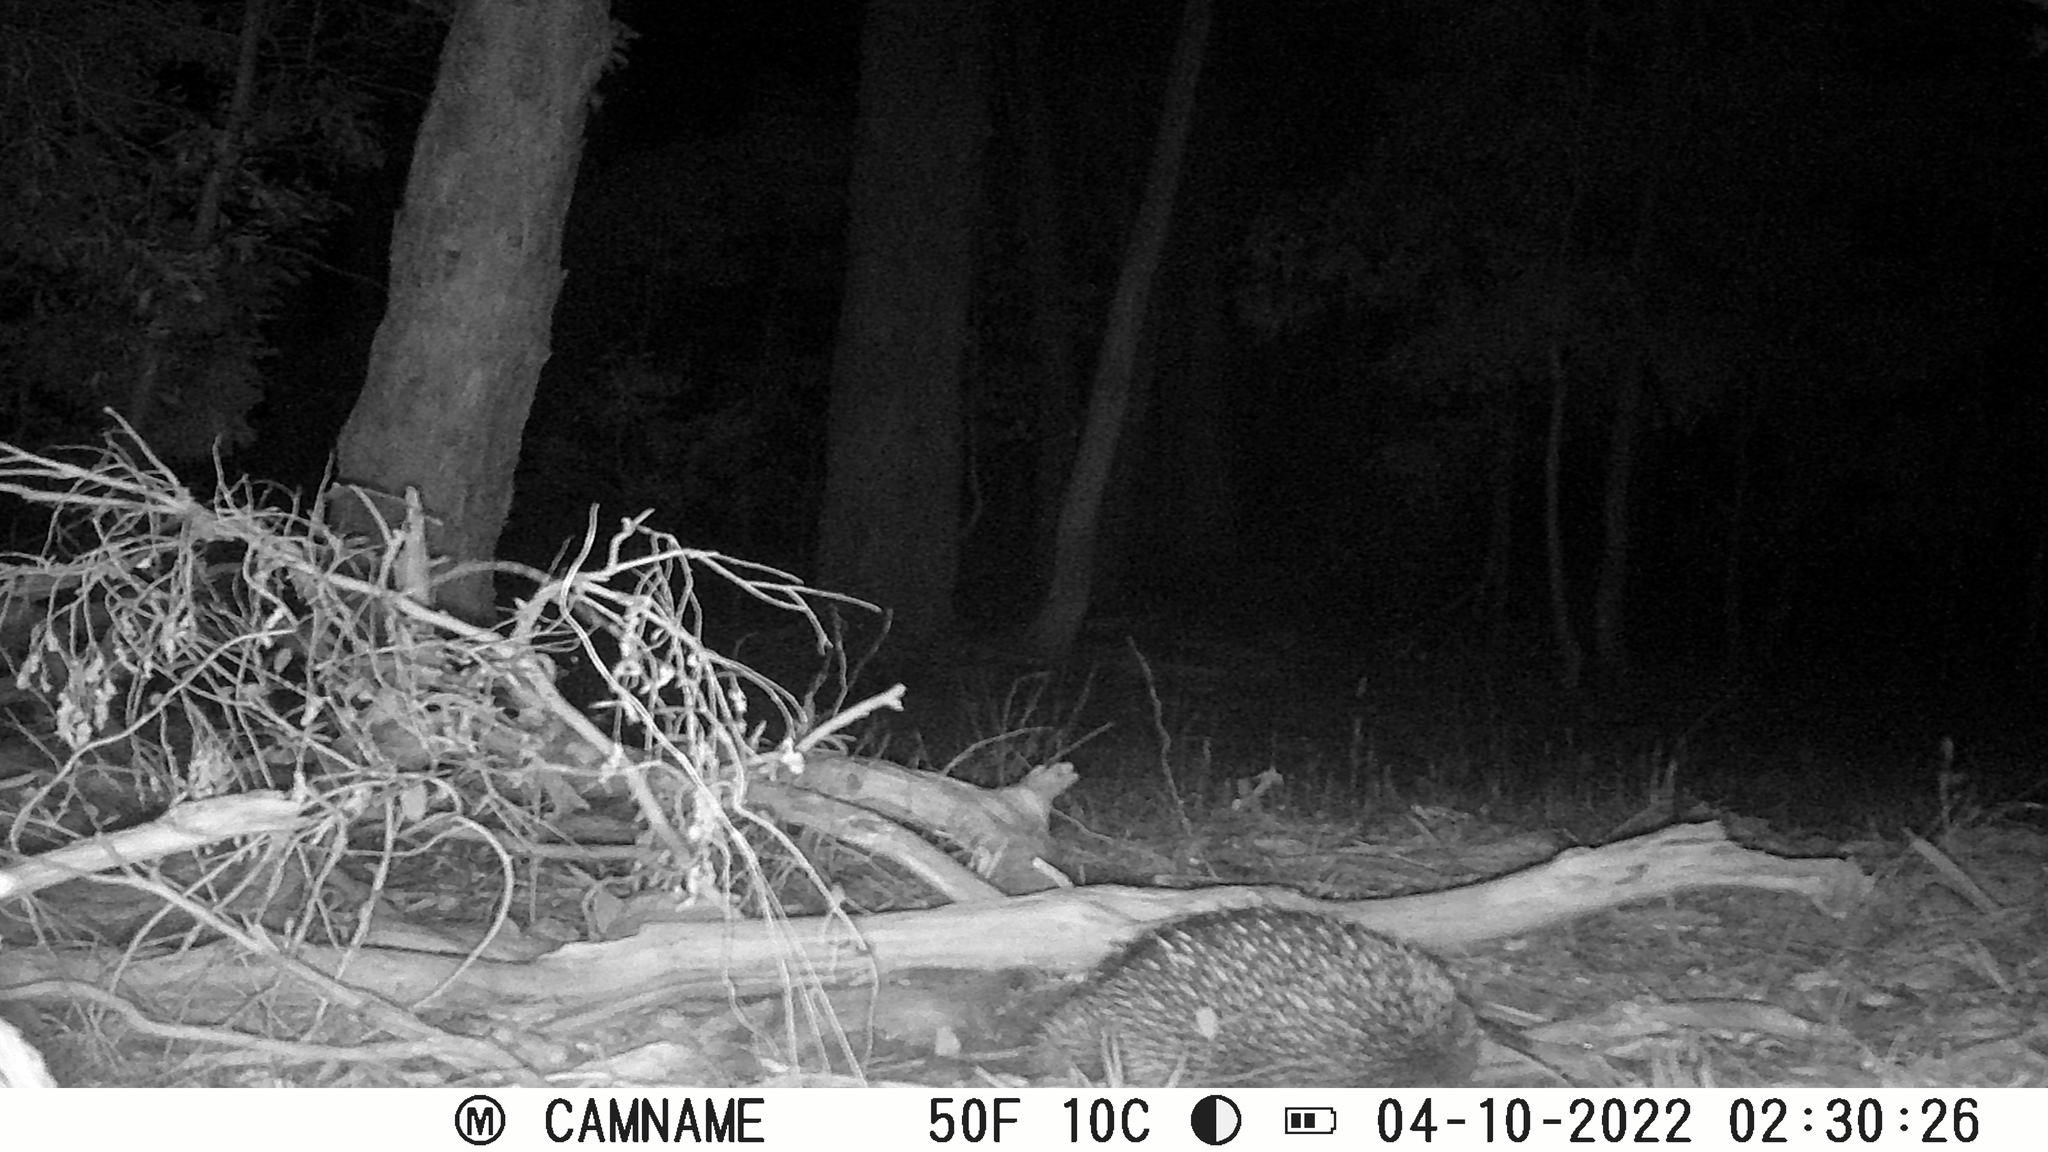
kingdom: Animalia
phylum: Chordata
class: Mammalia
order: Monotremata
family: Tachyglossidae
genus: Tachyglossus
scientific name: Tachyglossus aculeatus
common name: Short-beaked echidna
